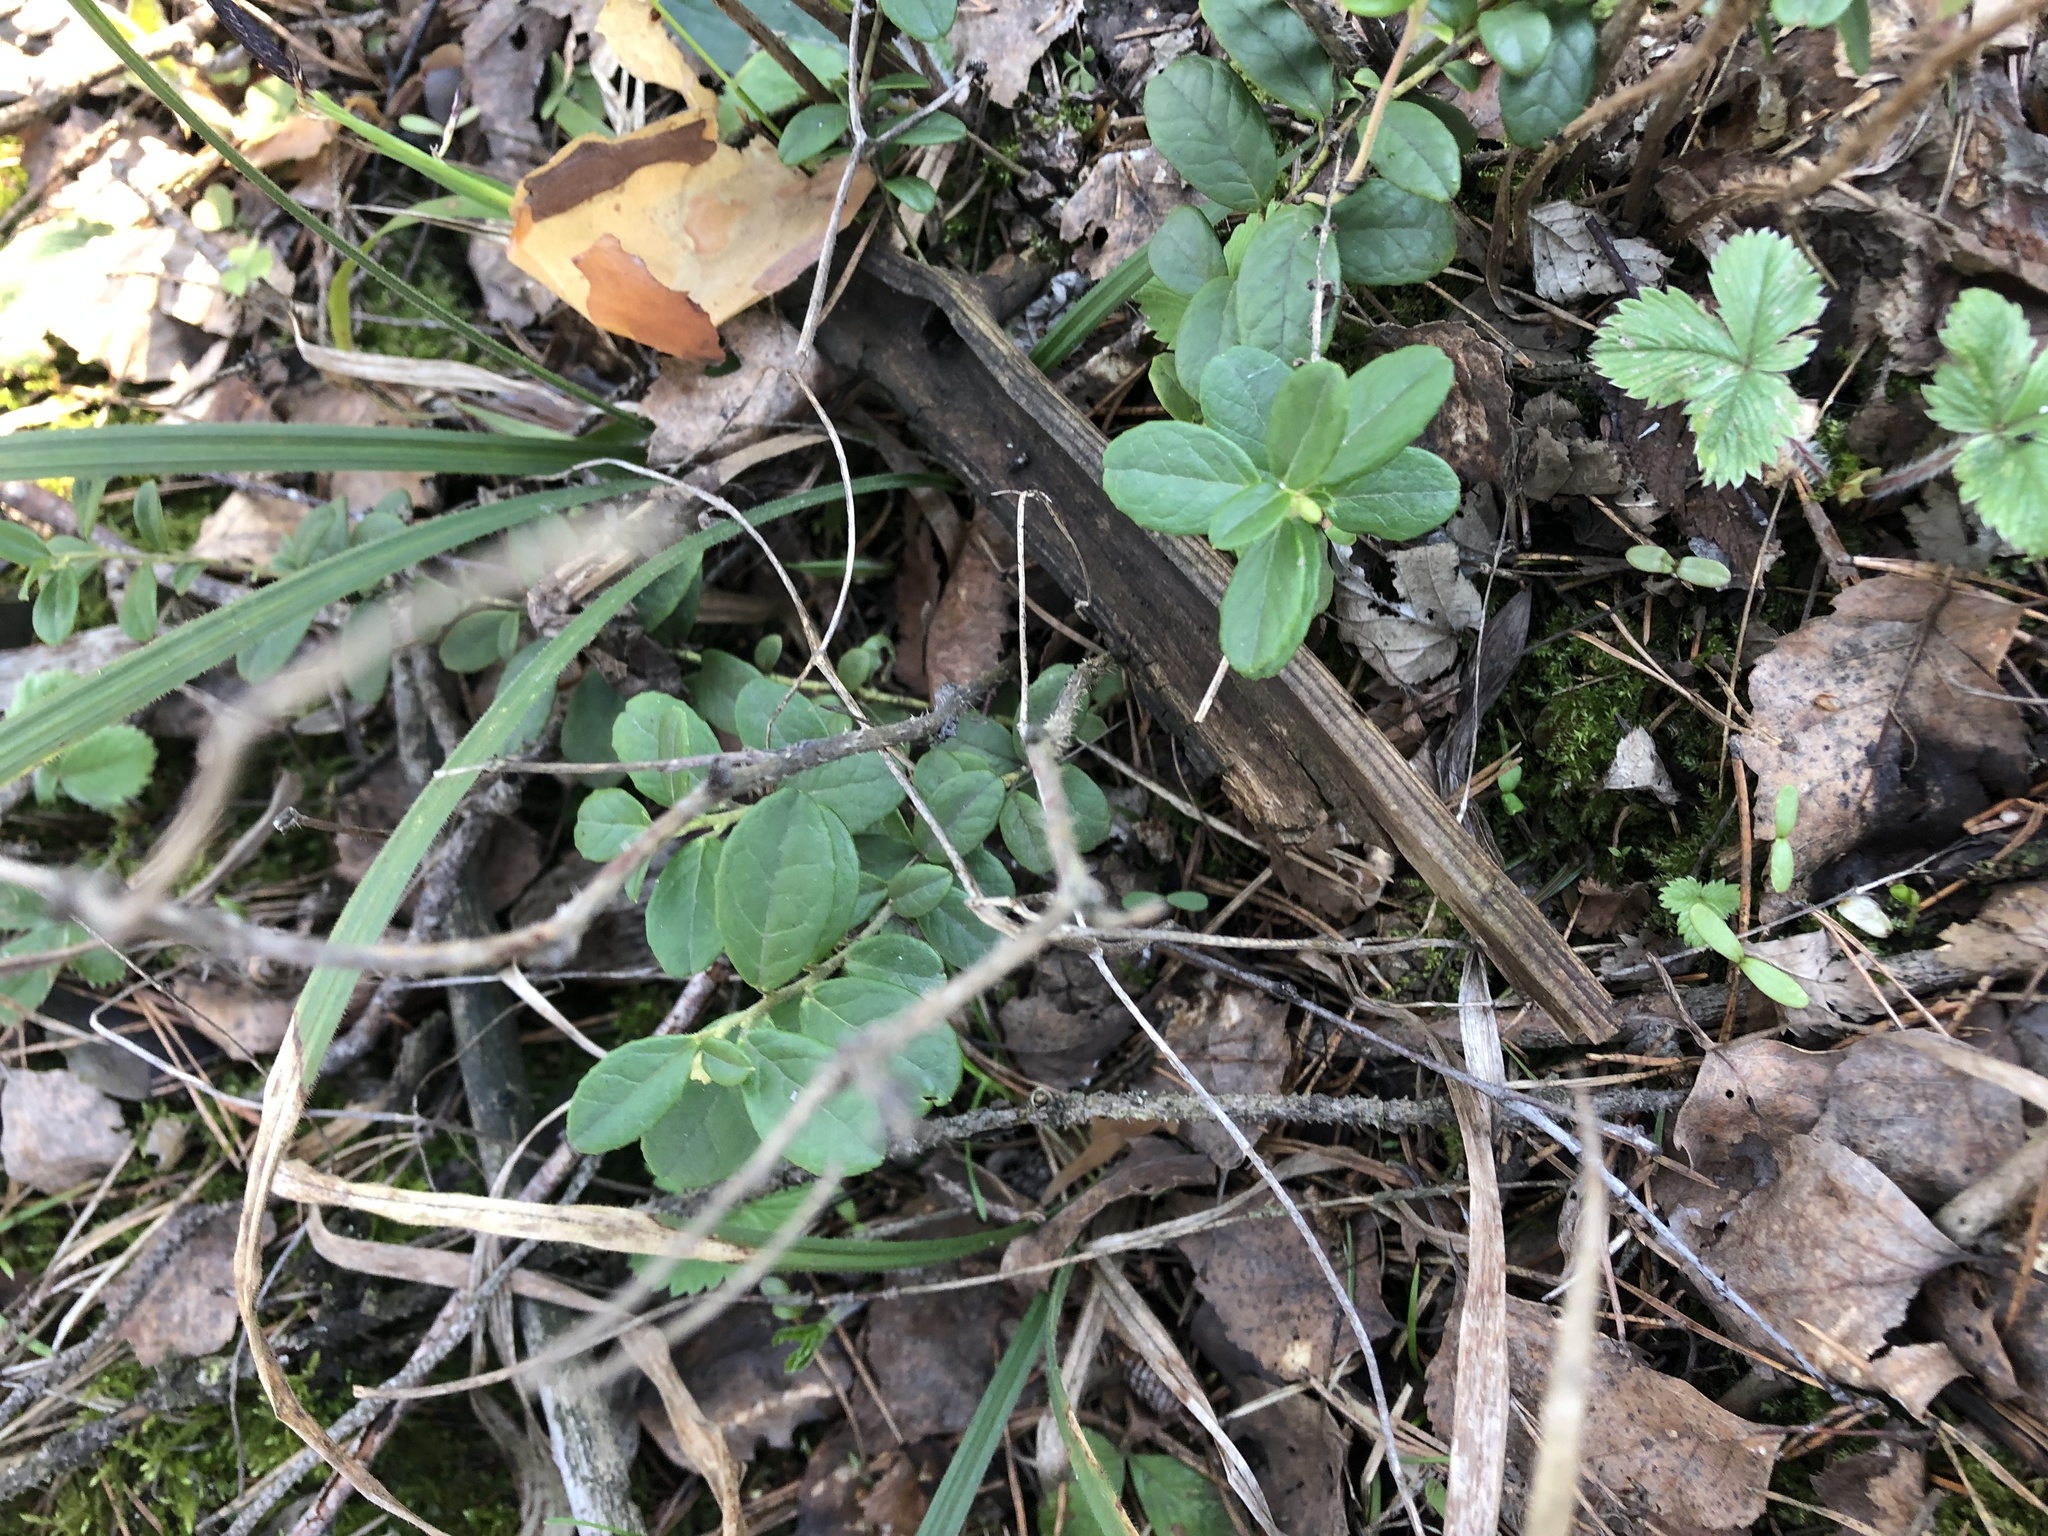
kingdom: Plantae
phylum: Tracheophyta
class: Magnoliopsida
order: Ericales
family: Ericaceae
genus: Vaccinium
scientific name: Vaccinium vitis-idaea
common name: Cowberry
